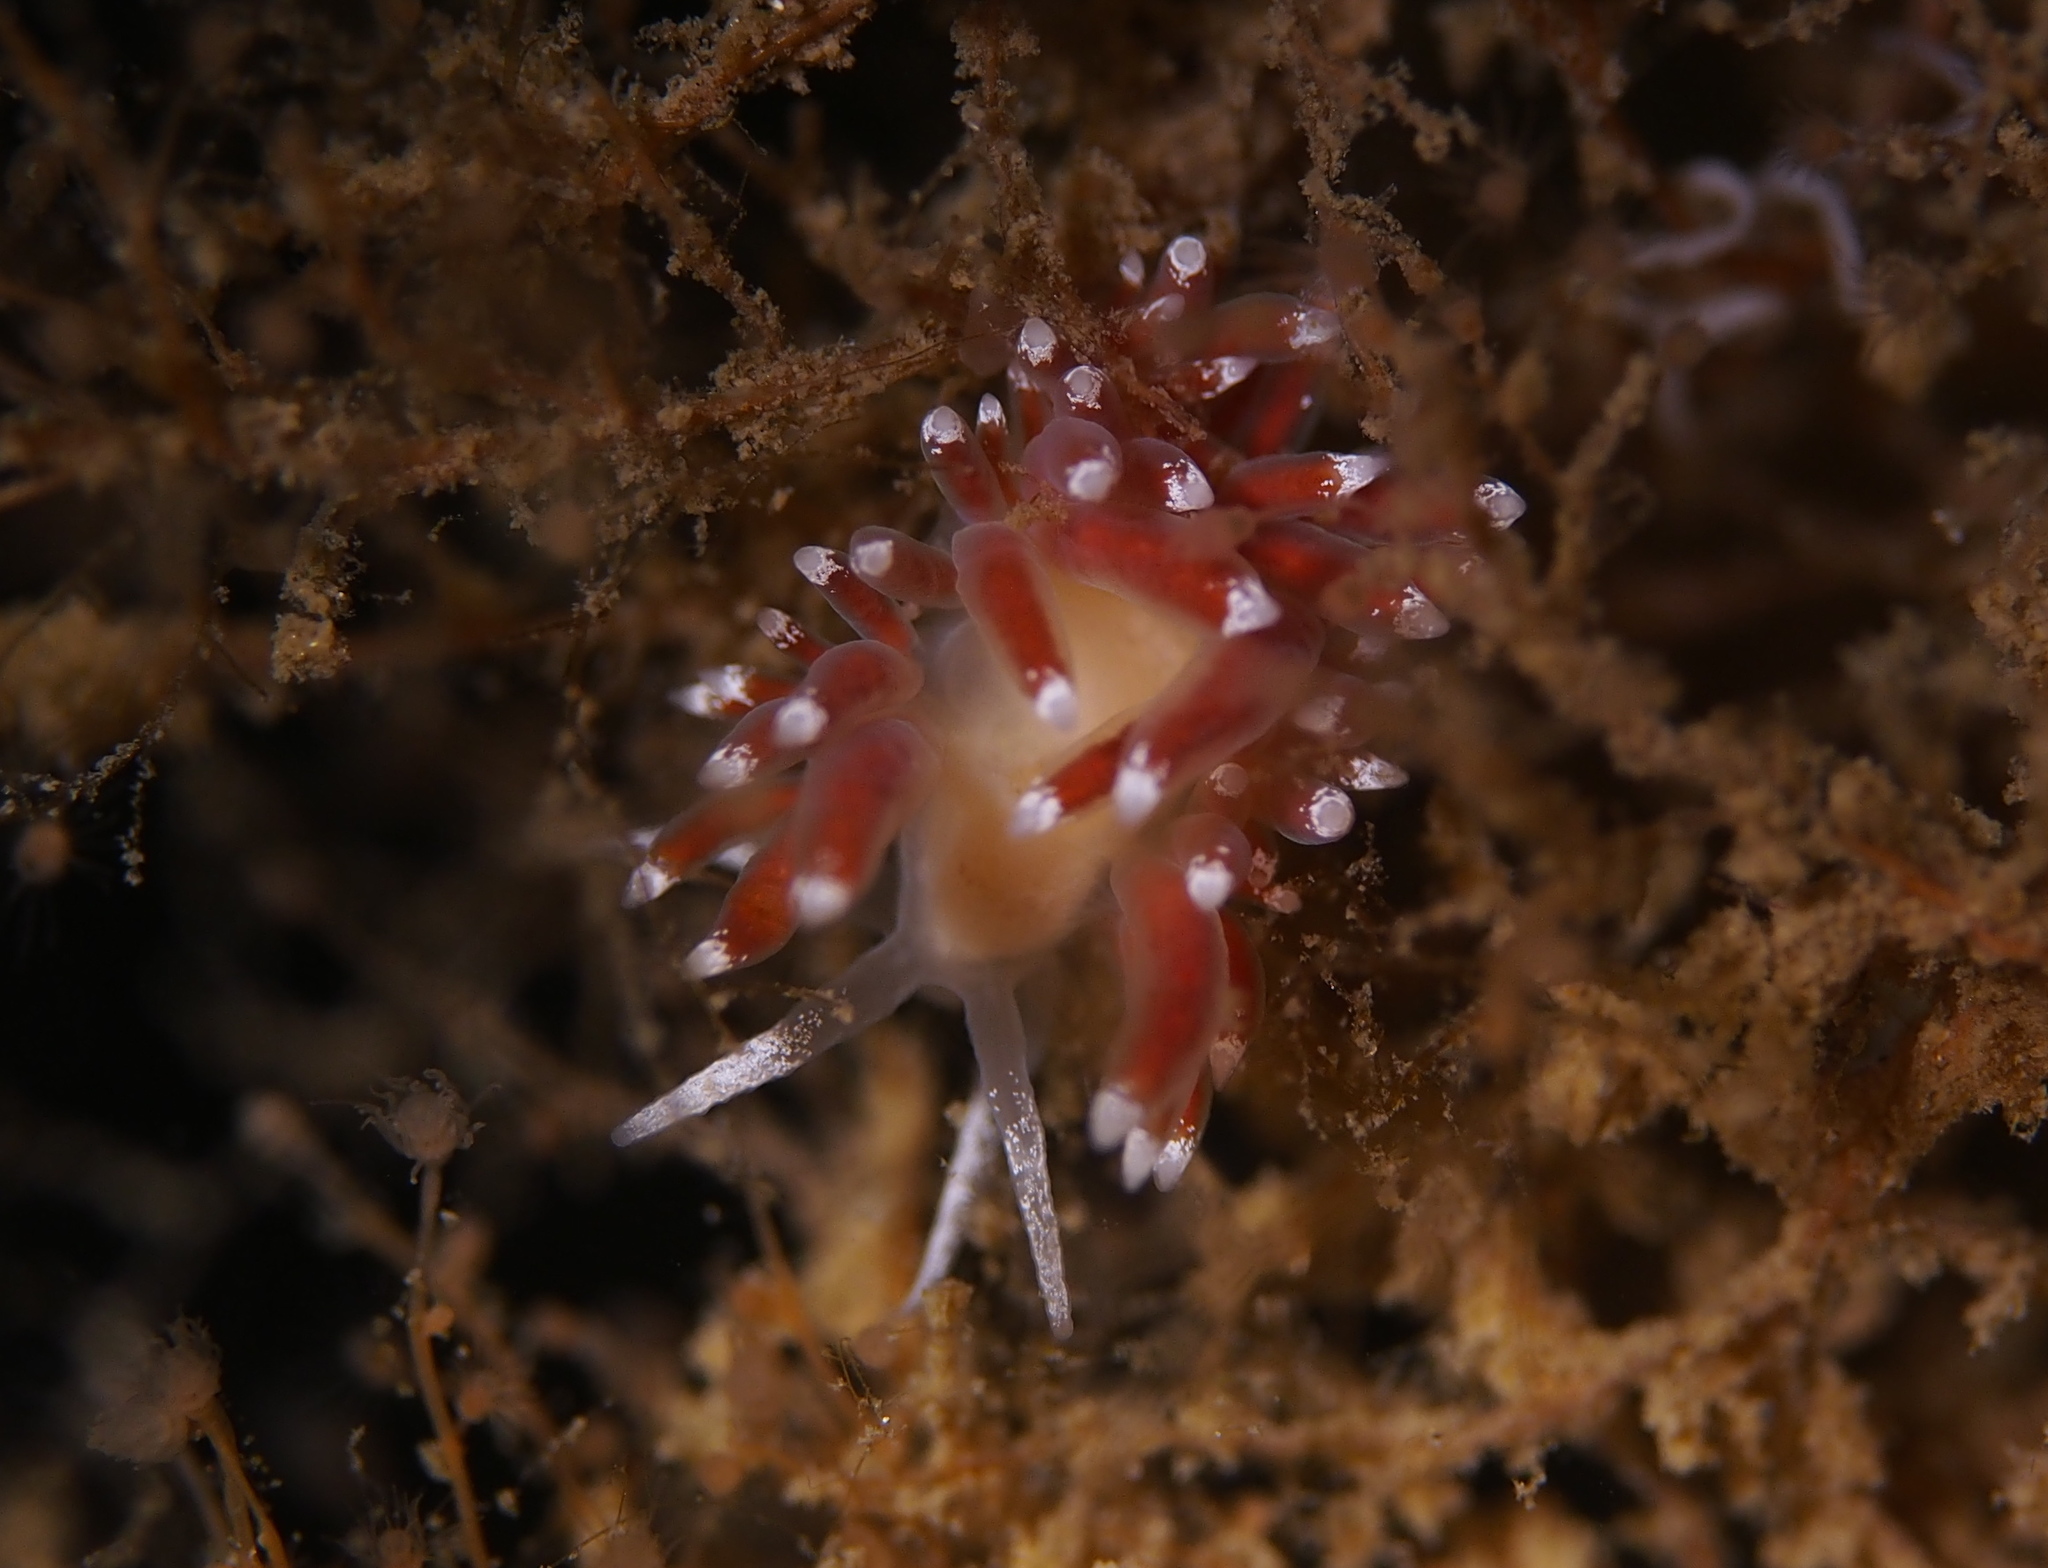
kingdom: Animalia
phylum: Mollusca
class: Gastropoda
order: Nudibranchia
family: Coryphellidae
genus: Coryphella
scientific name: Coryphella gracilis
